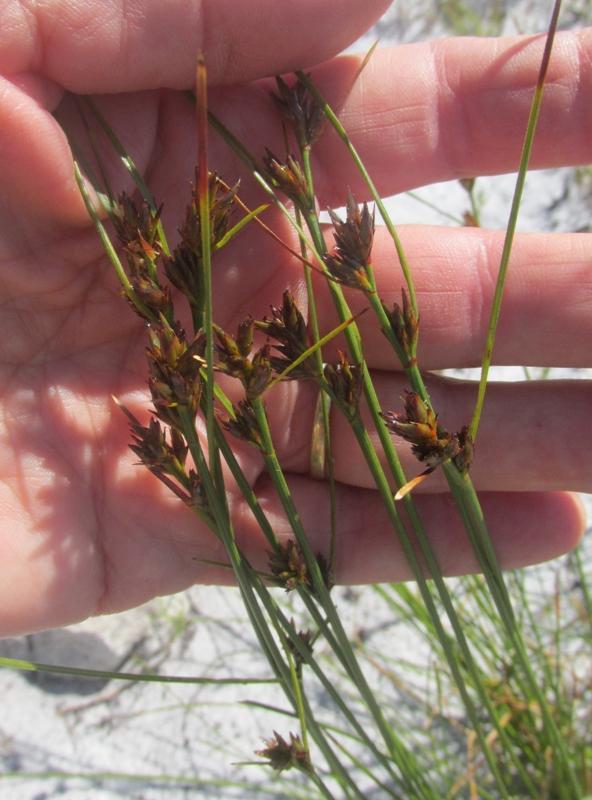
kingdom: Plantae
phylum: Tracheophyta
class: Liliopsida
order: Poales
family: Cyperaceae
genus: Schoenus
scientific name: Schoenus compar
